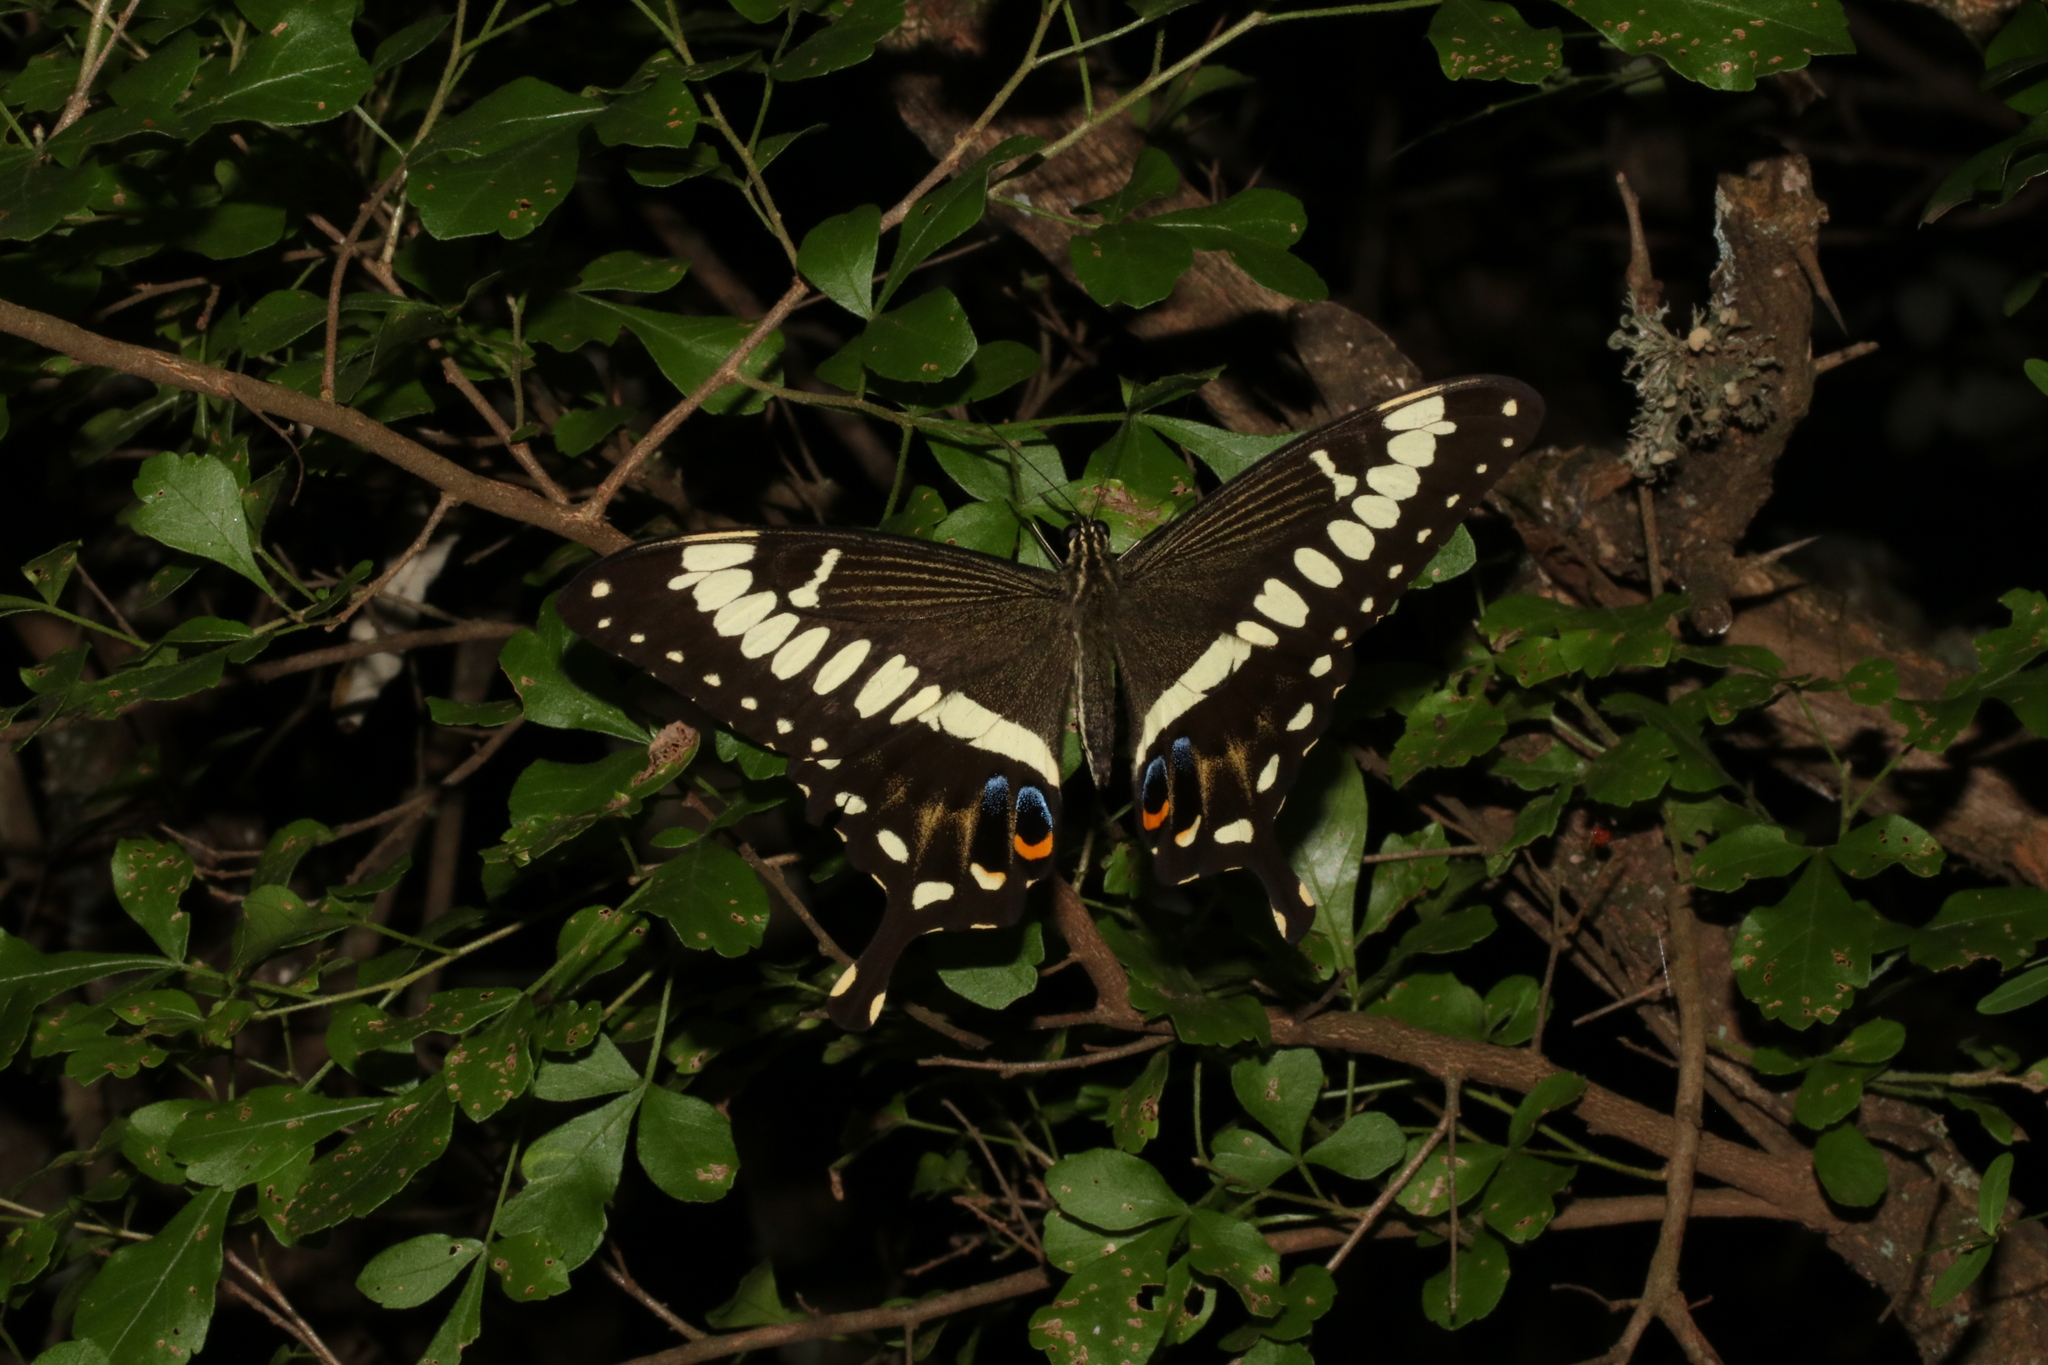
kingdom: Animalia
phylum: Arthropoda
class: Insecta
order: Lepidoptera
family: Papilionidae
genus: Papilio
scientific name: Papilio ophidicephalus
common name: Emperor swallowtail
